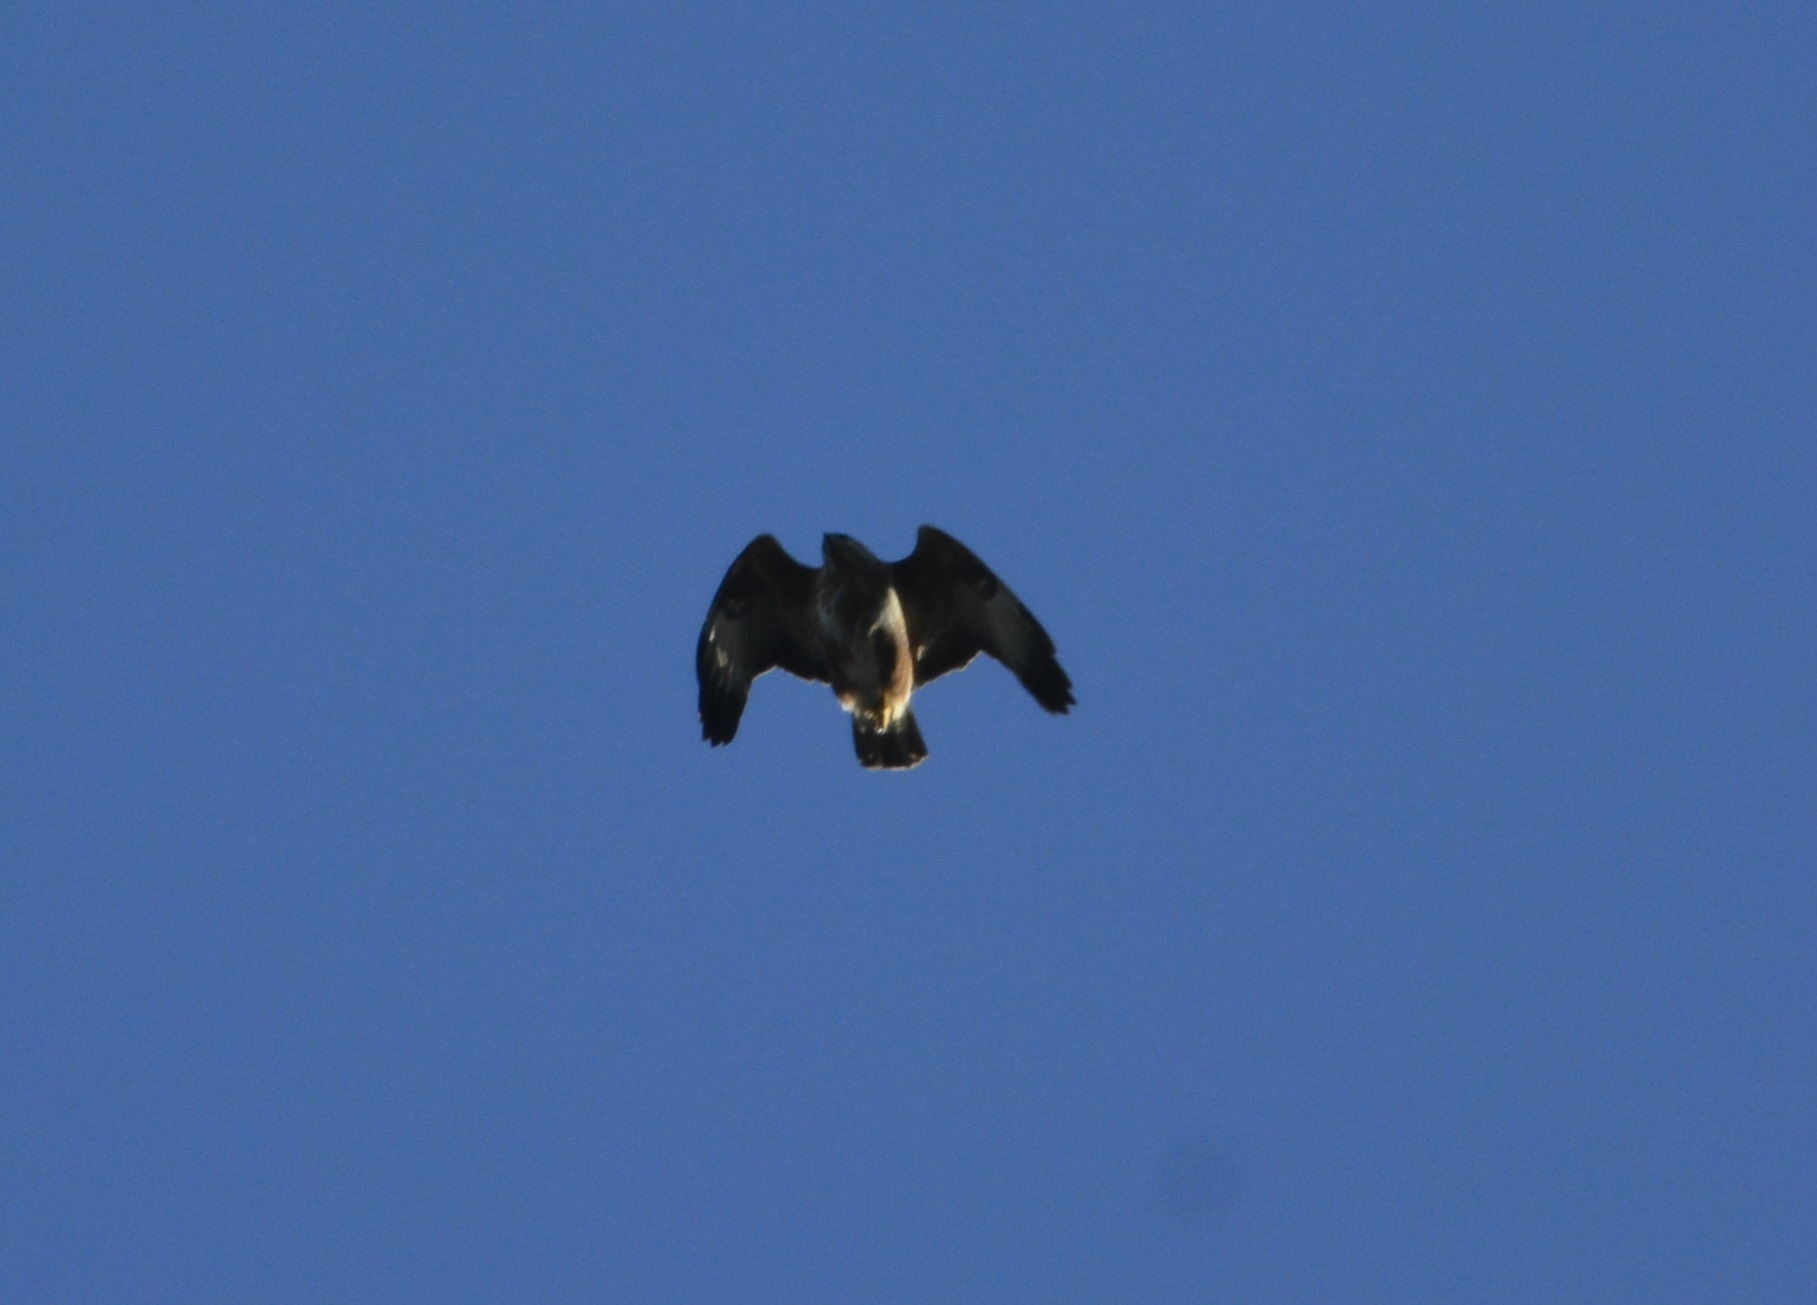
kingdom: Animalia
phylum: Chordata
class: Aves
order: Accipitriformes
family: Accipitridae
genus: Buteo
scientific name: Buteo buteo
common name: Common buzzard
